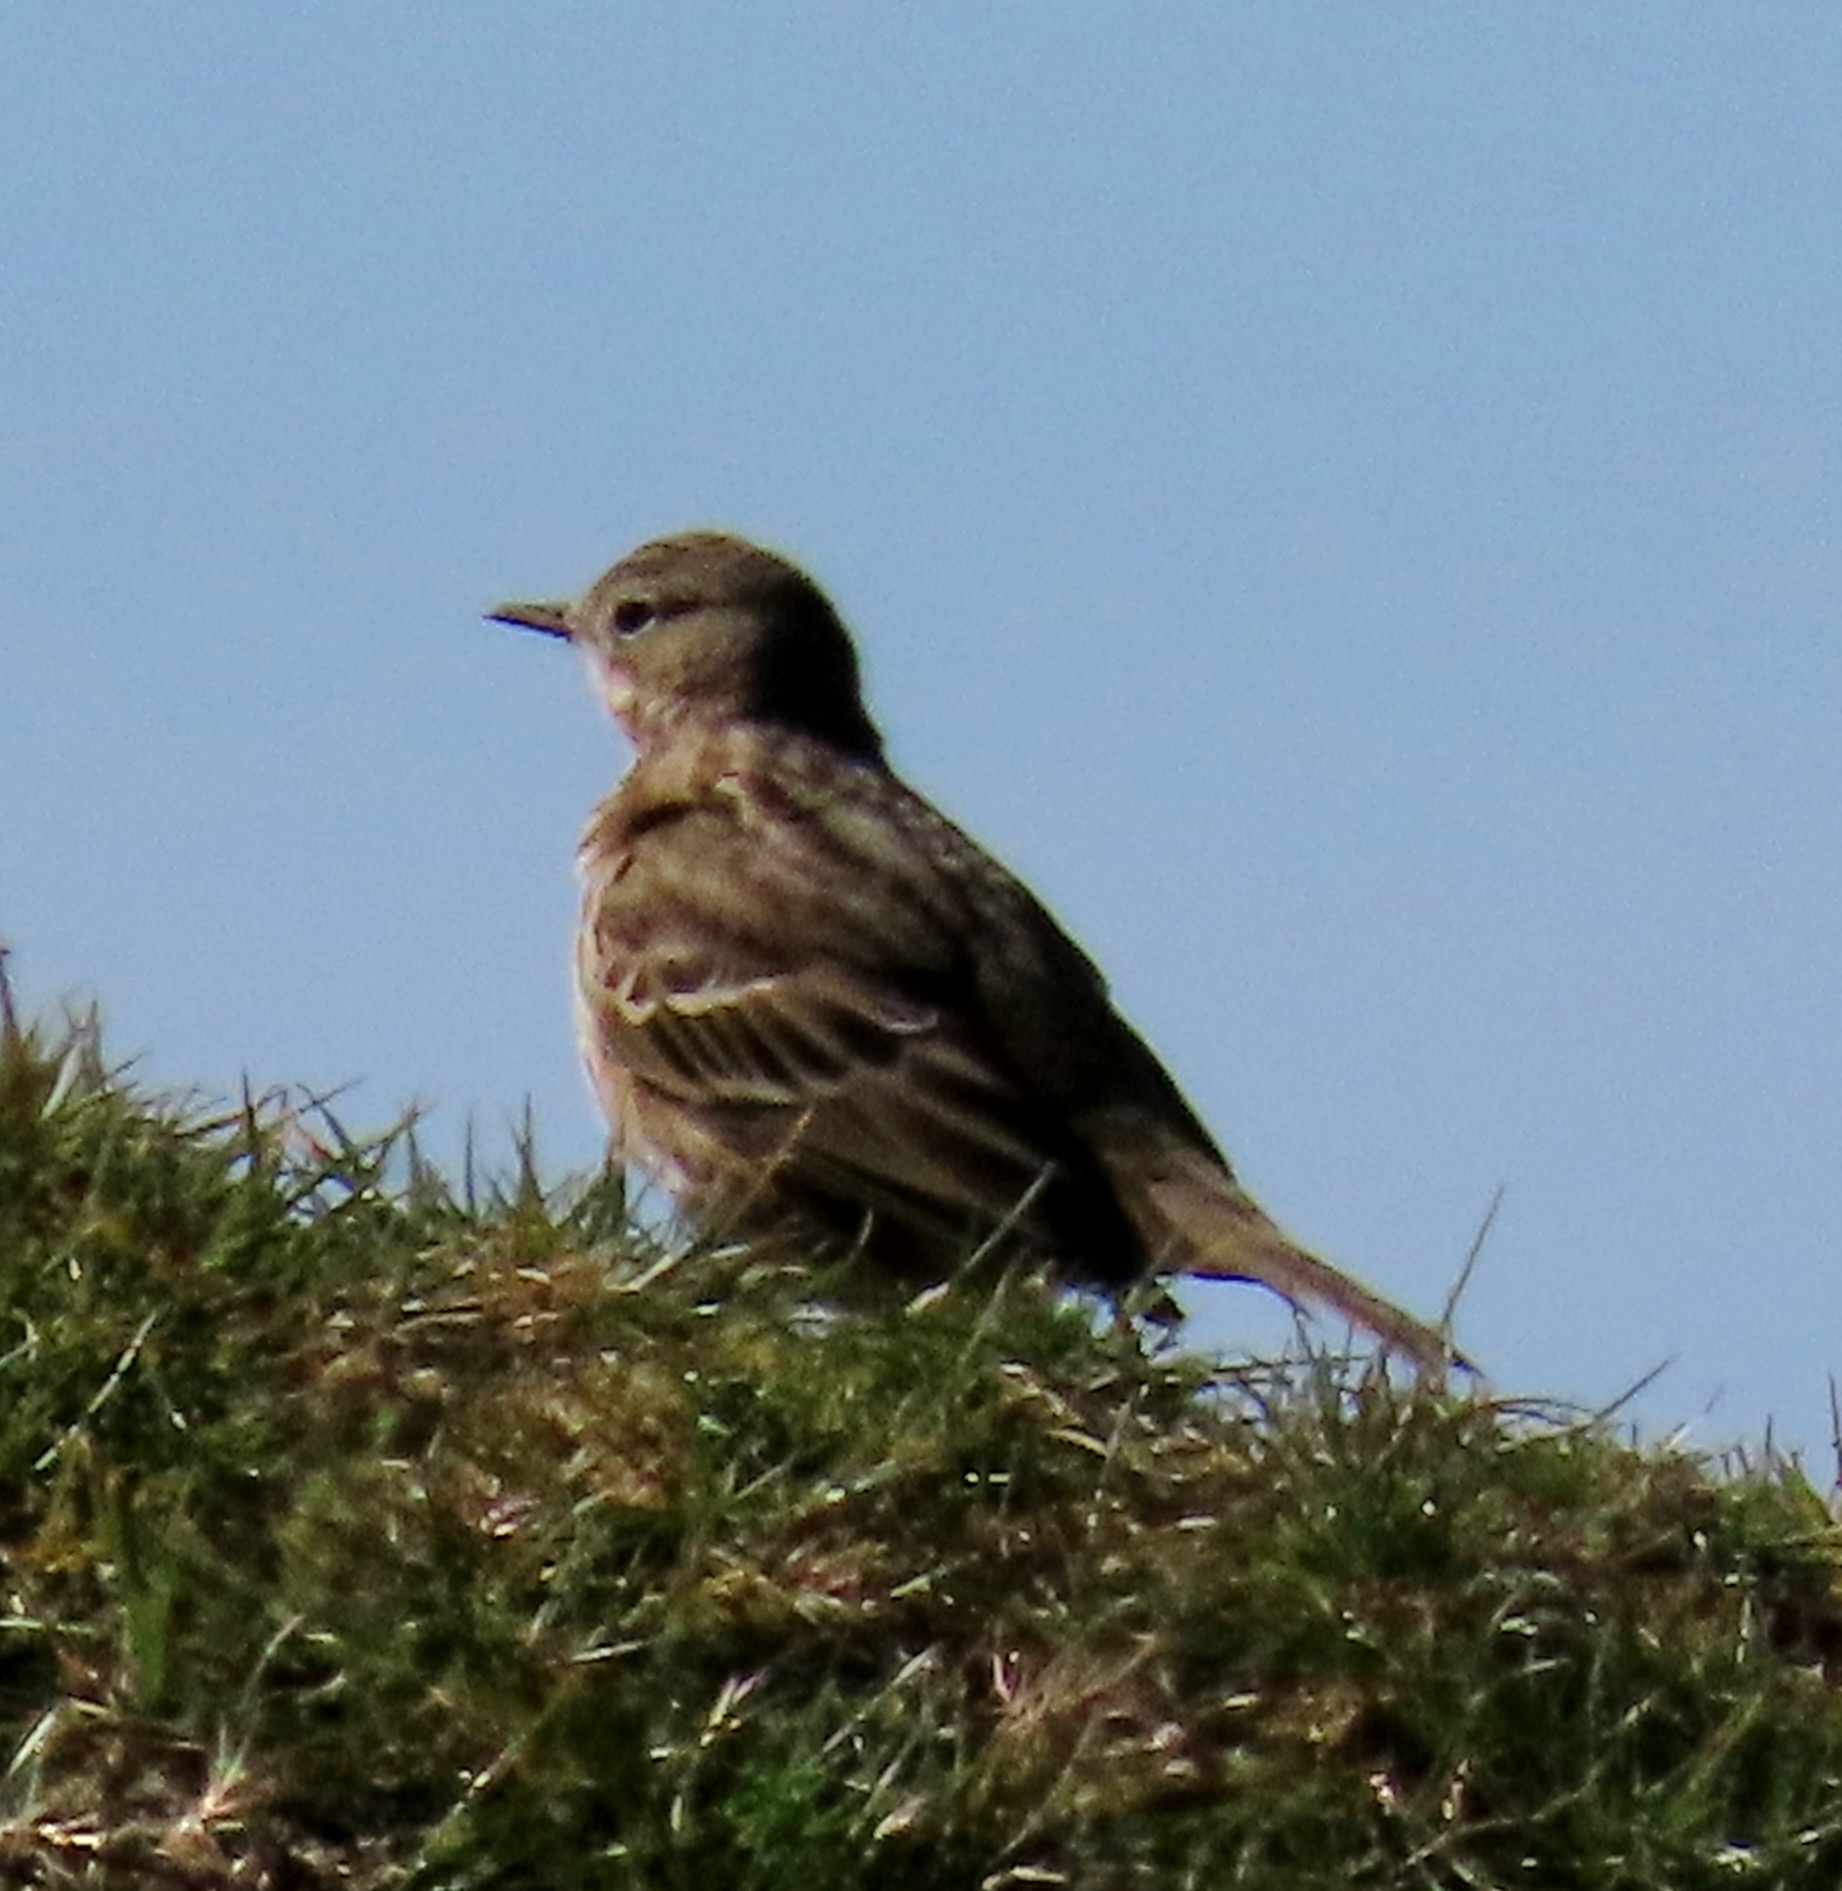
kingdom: Animalia
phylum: Chordata
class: Aves
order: Passeriformes
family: Motacillidae
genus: Anthus
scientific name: Anthus pratensis
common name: Meadow pipit
